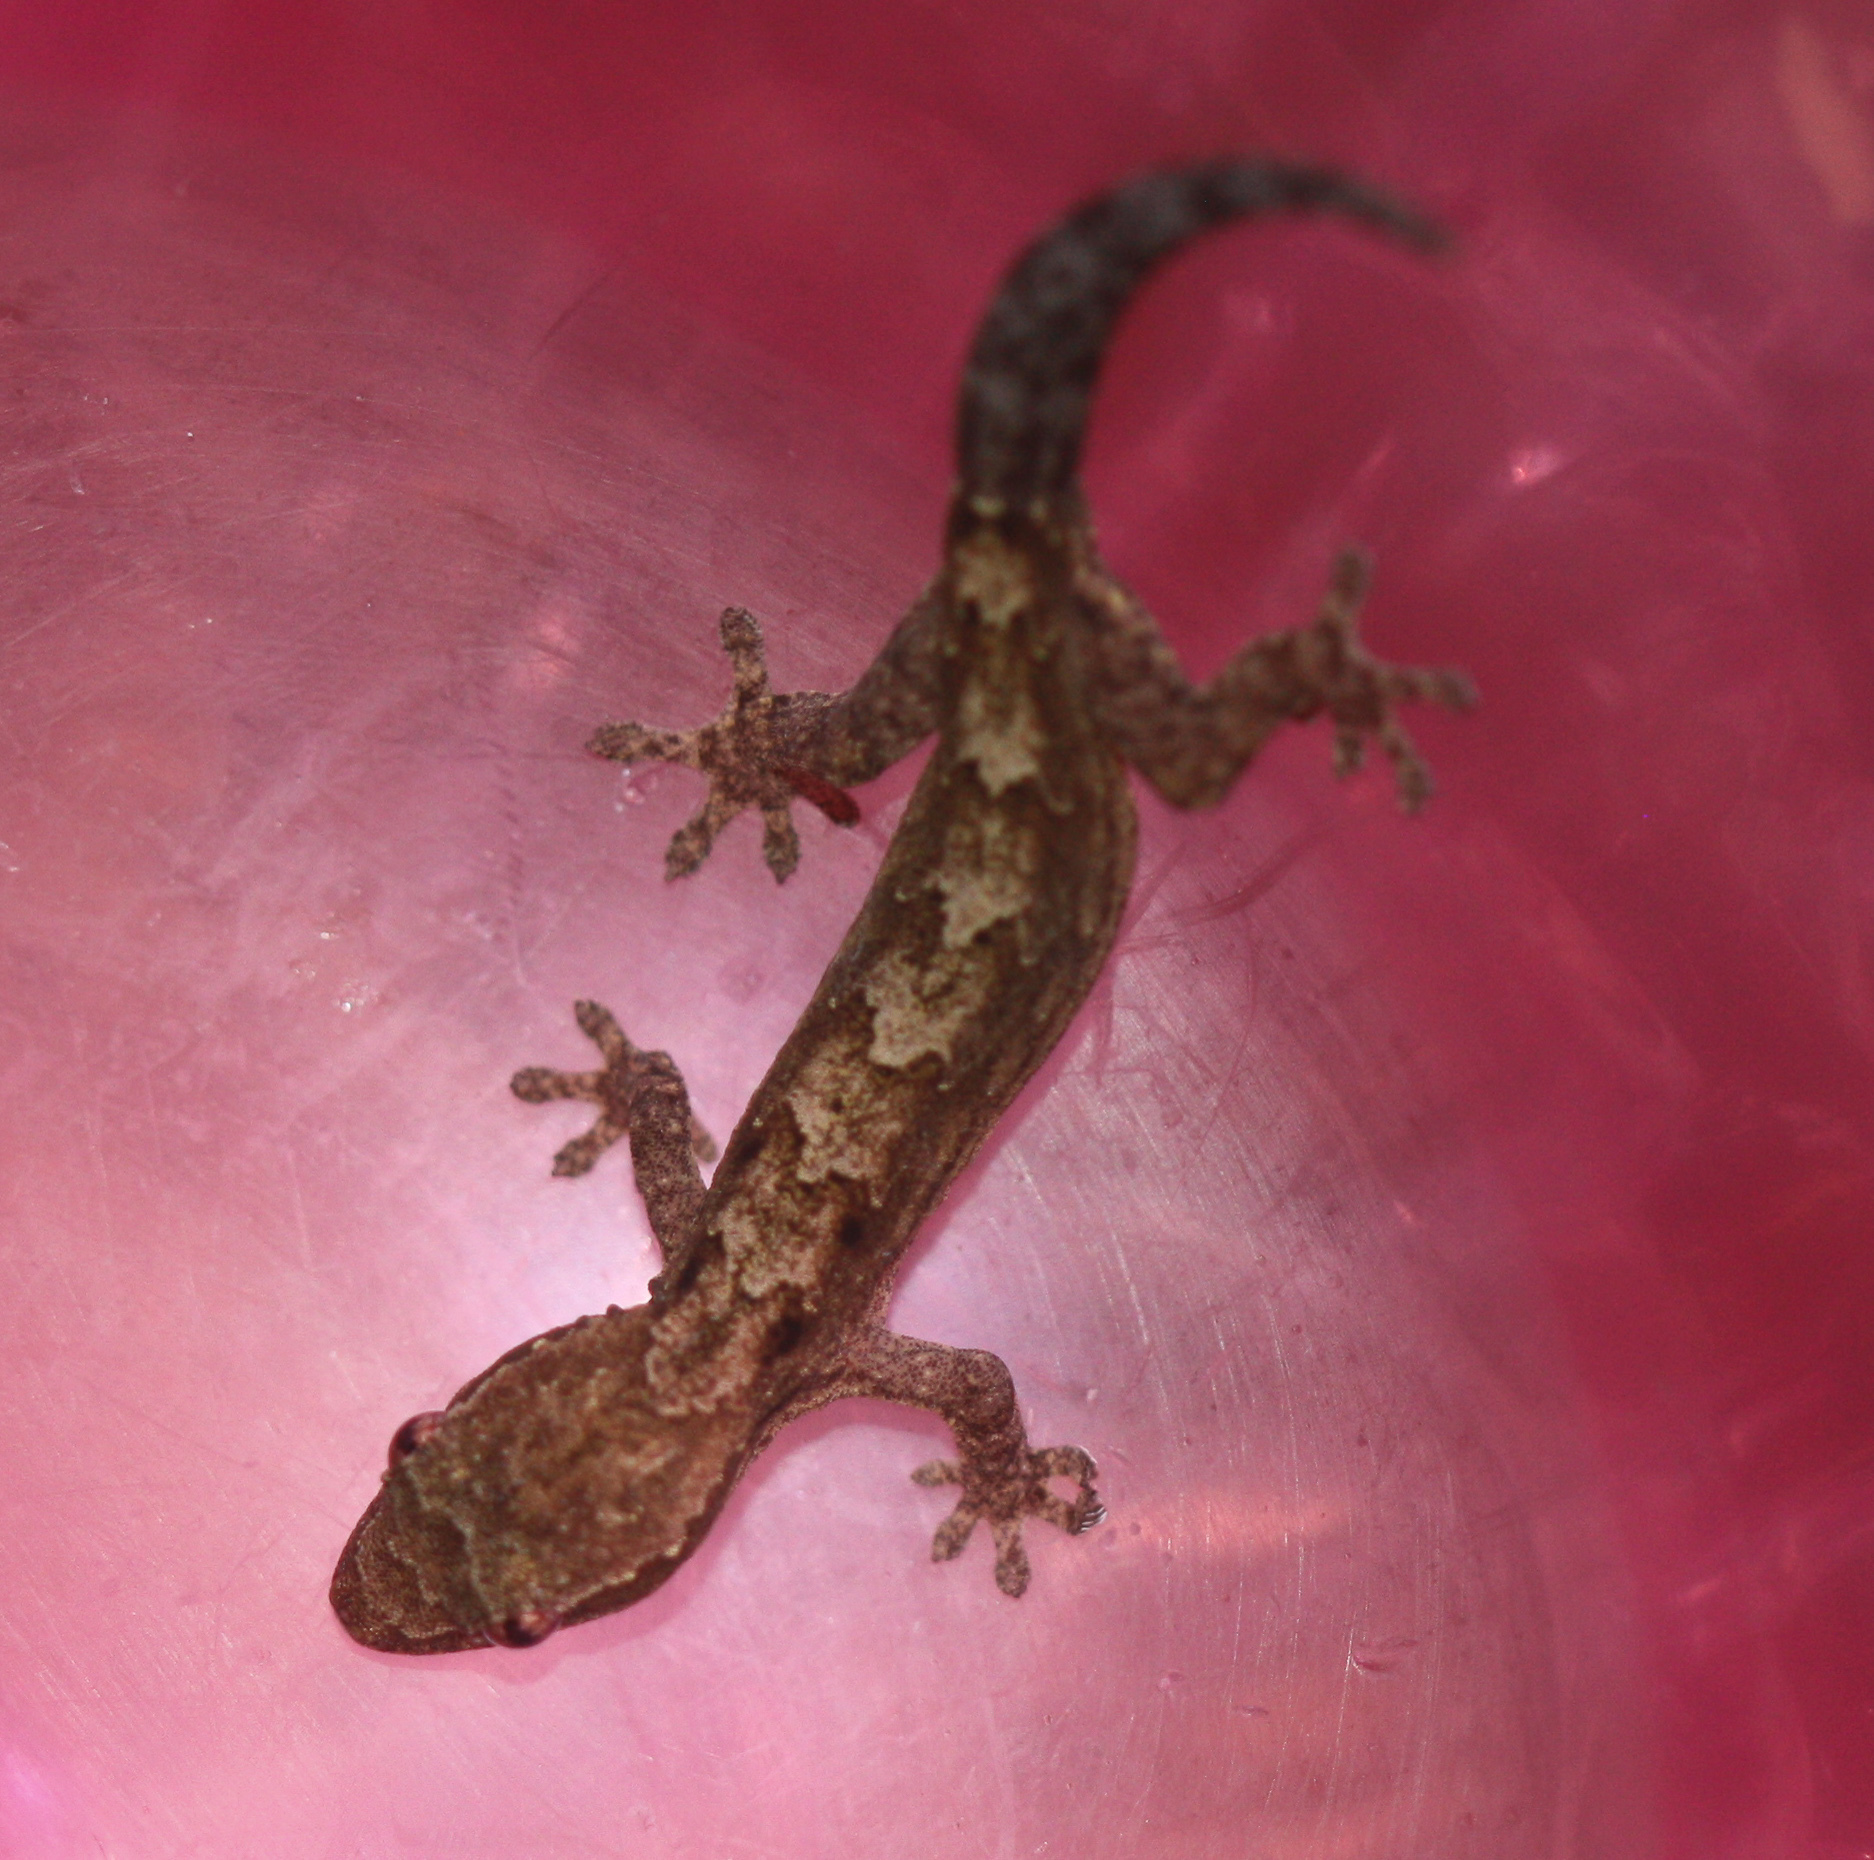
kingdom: Animalia
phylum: Chordata
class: Squamata
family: Gekkonidae
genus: Lepidodactylus
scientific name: Lepidodactylus lugubris
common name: Mourning gecko
